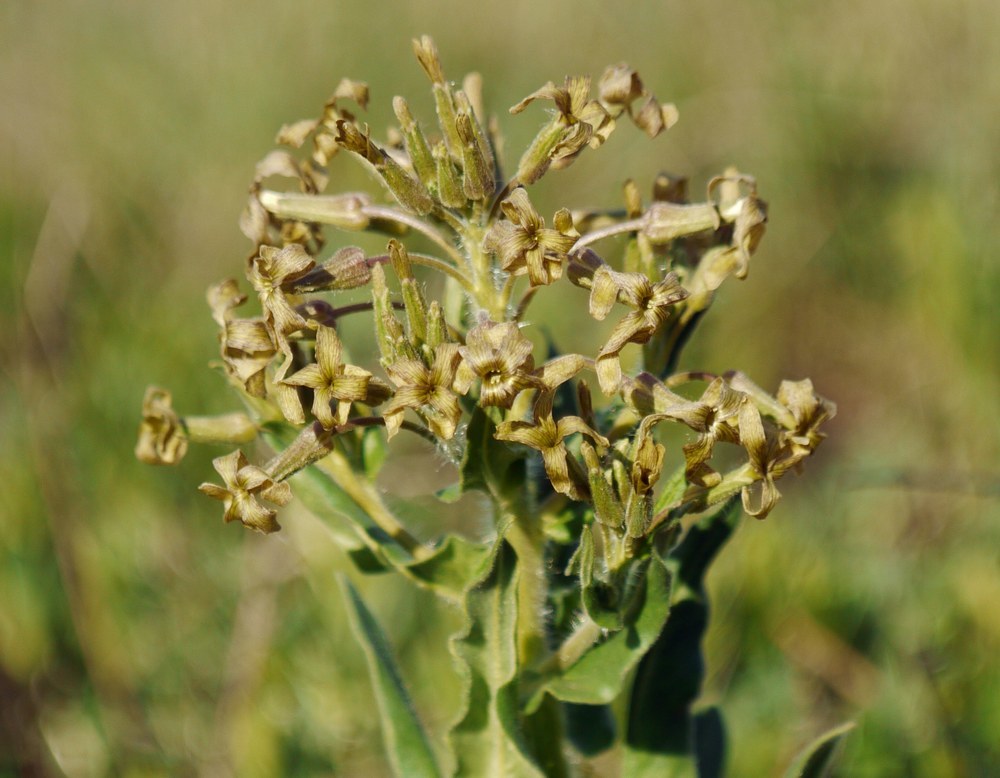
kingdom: Plantae
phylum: Tracheophyta
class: Magnoliopsida
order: Brassicales
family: Brassicaceae
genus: Hesperis
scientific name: Hesperis tristis
